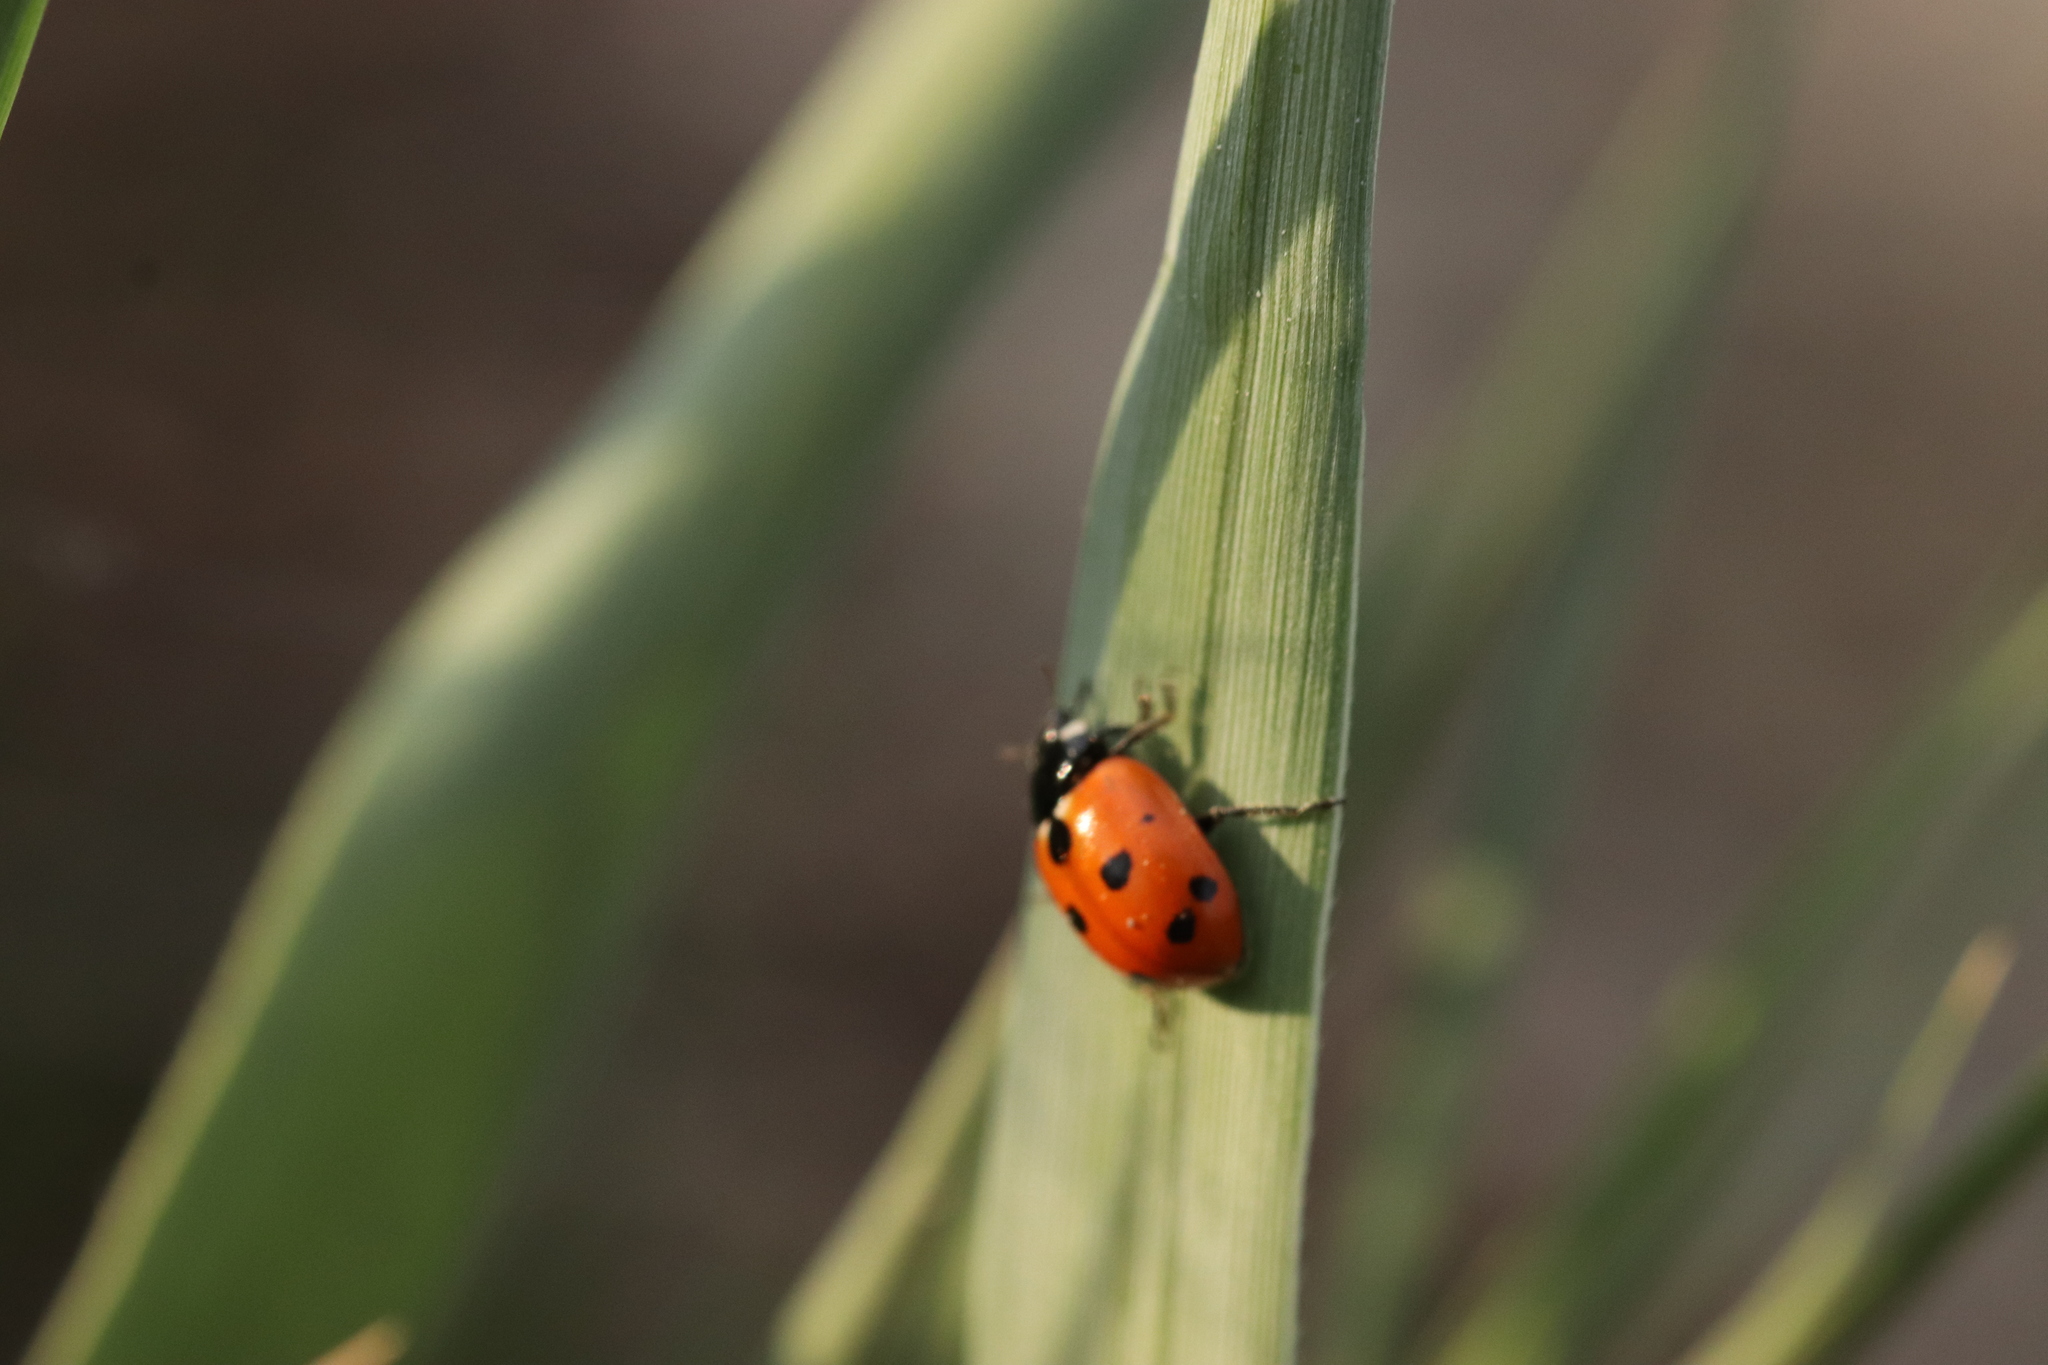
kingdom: Animalia
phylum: Arthropoda
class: Insecta
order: Coleoptera
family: Coccinellidae
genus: Hippodamia
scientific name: Hippodamia variegata
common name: Ladybird beetle
